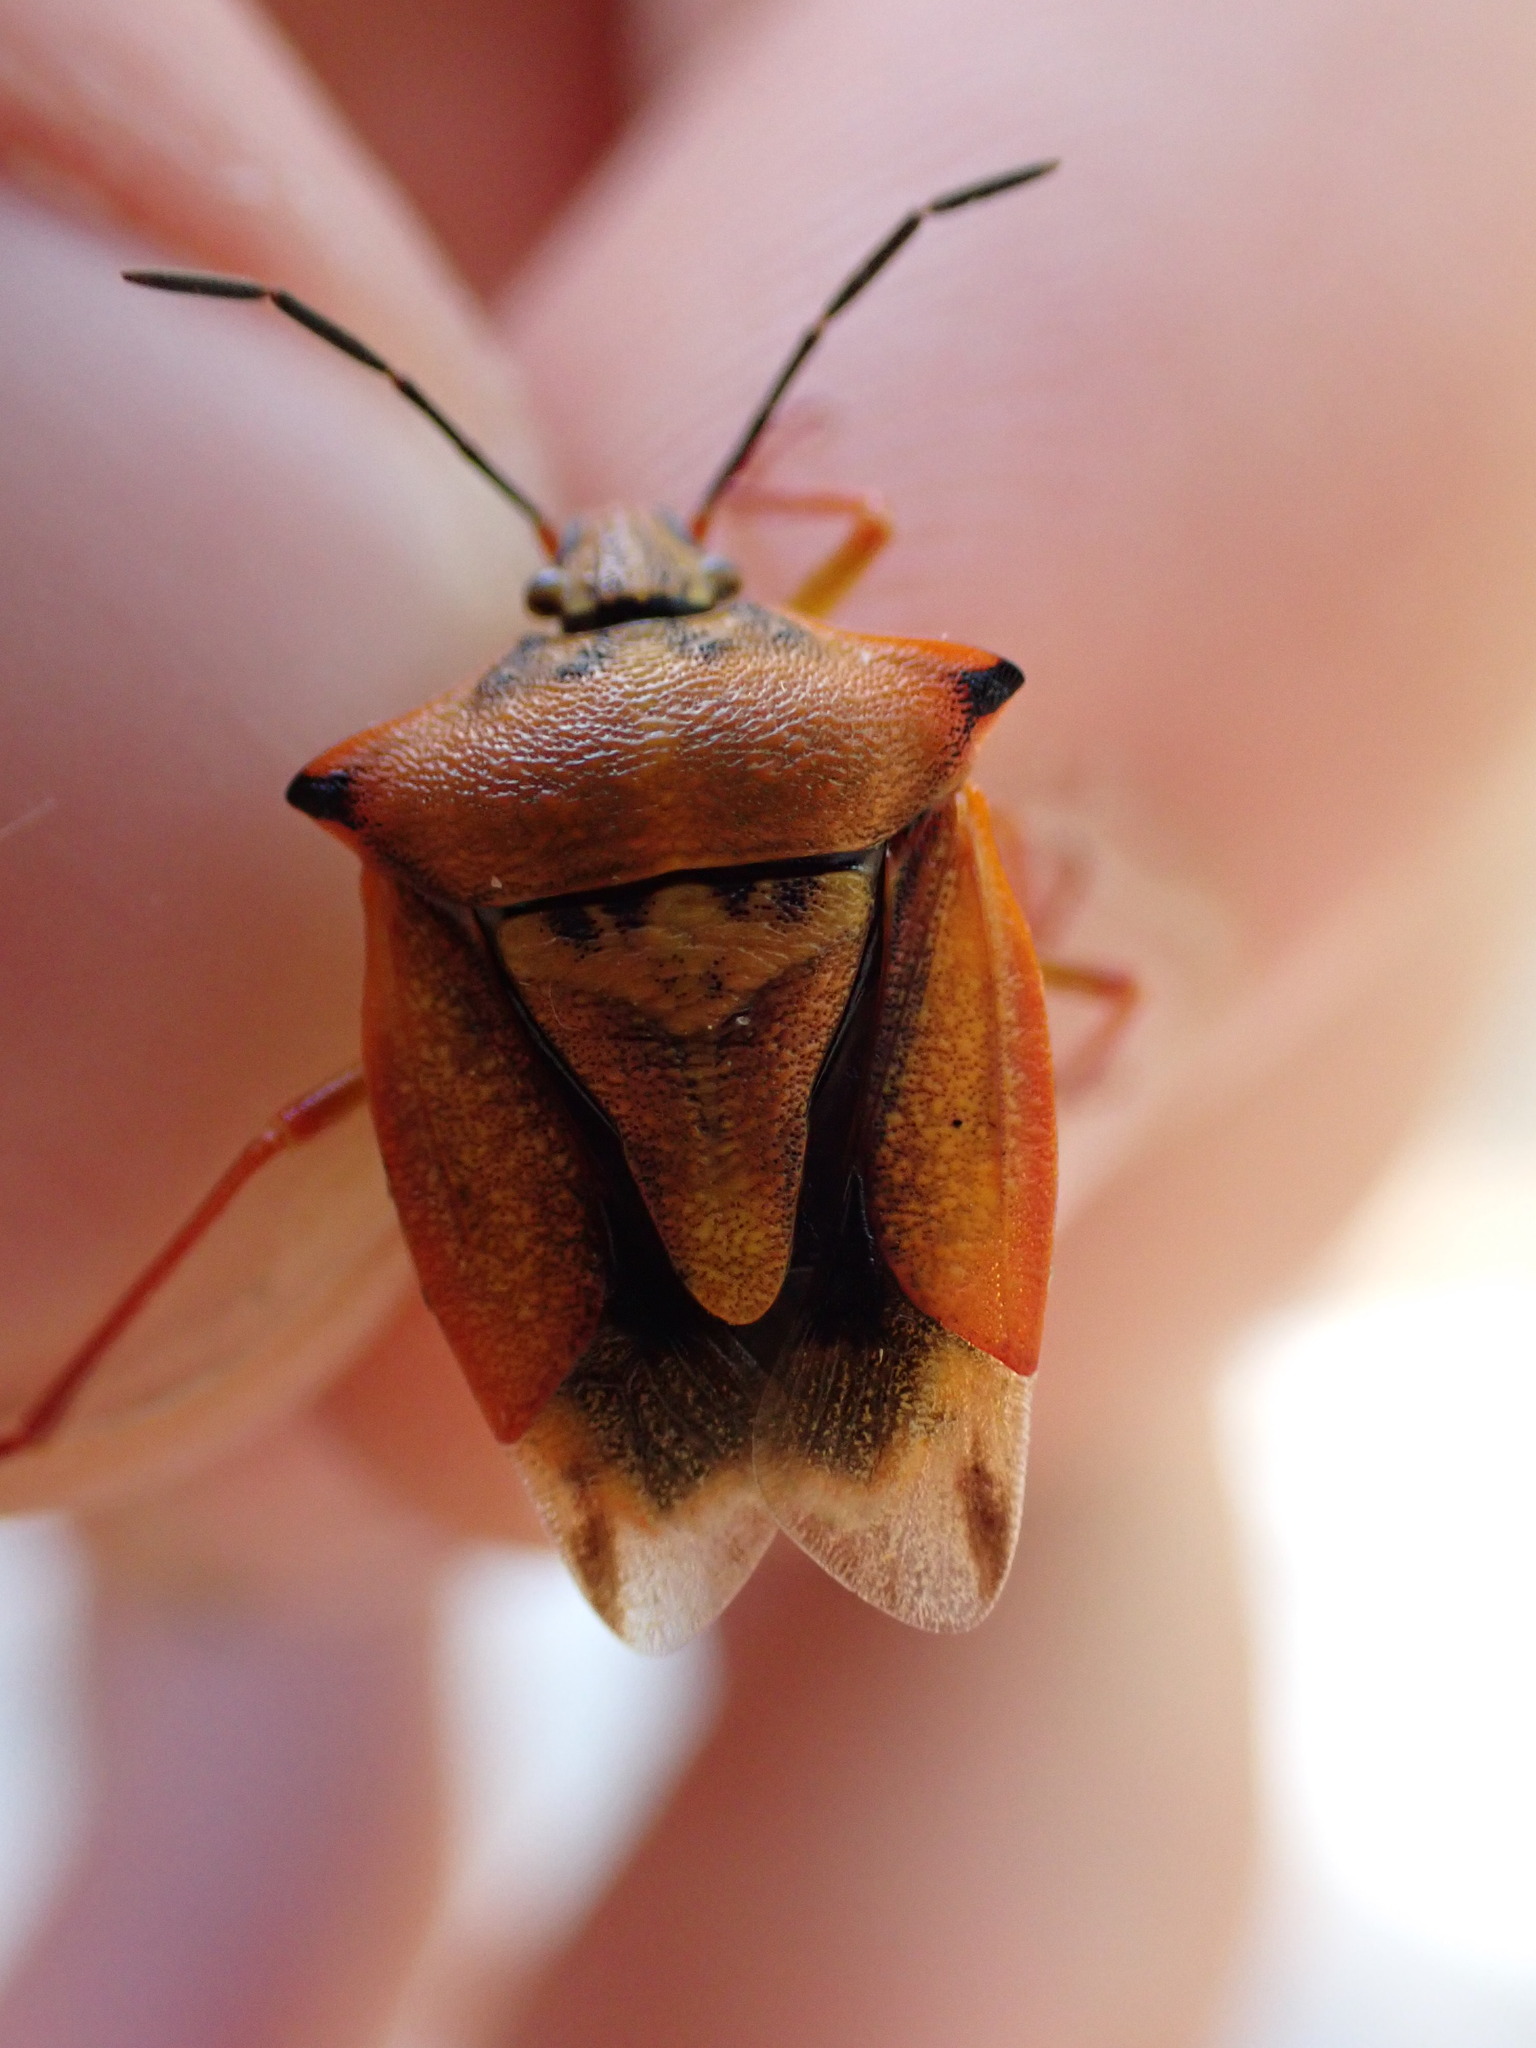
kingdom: Animalia
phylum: Arthropoda
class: Insecta
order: Hemiptera
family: Pentatomidae
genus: Carpocoris
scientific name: Carpocoris mediterraneus
